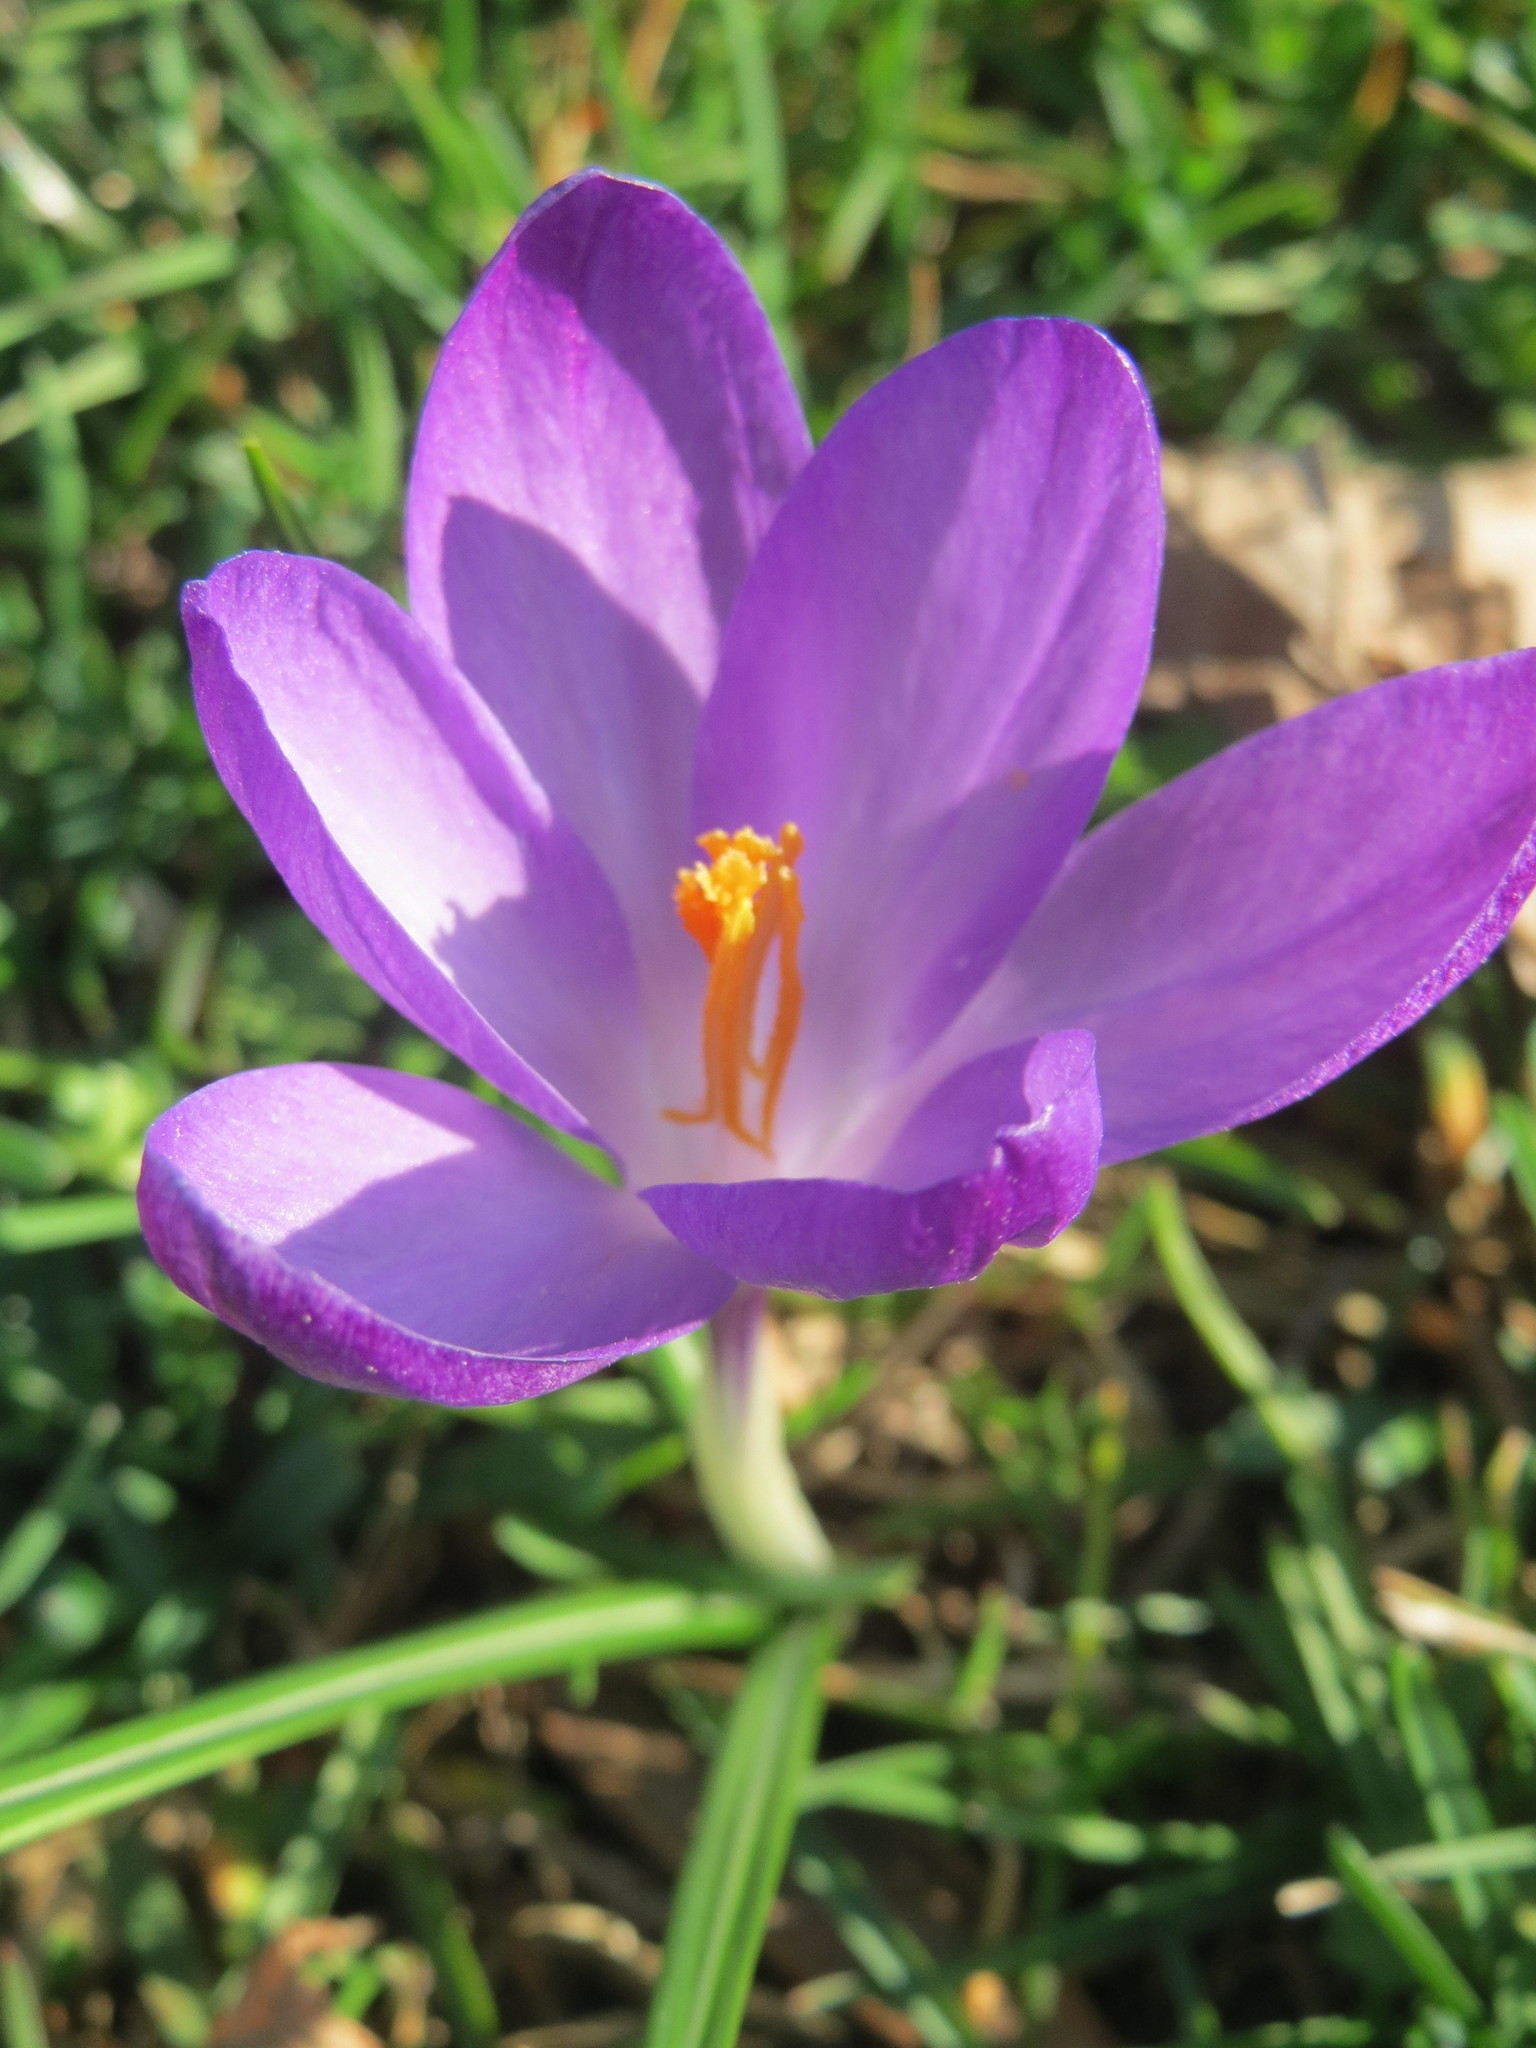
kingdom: Plantae
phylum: Tracheophyta
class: Liliopsida
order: Asparagales
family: Iridaceae
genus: Crocus
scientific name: Crocus tommasinianus
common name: Early crocus
